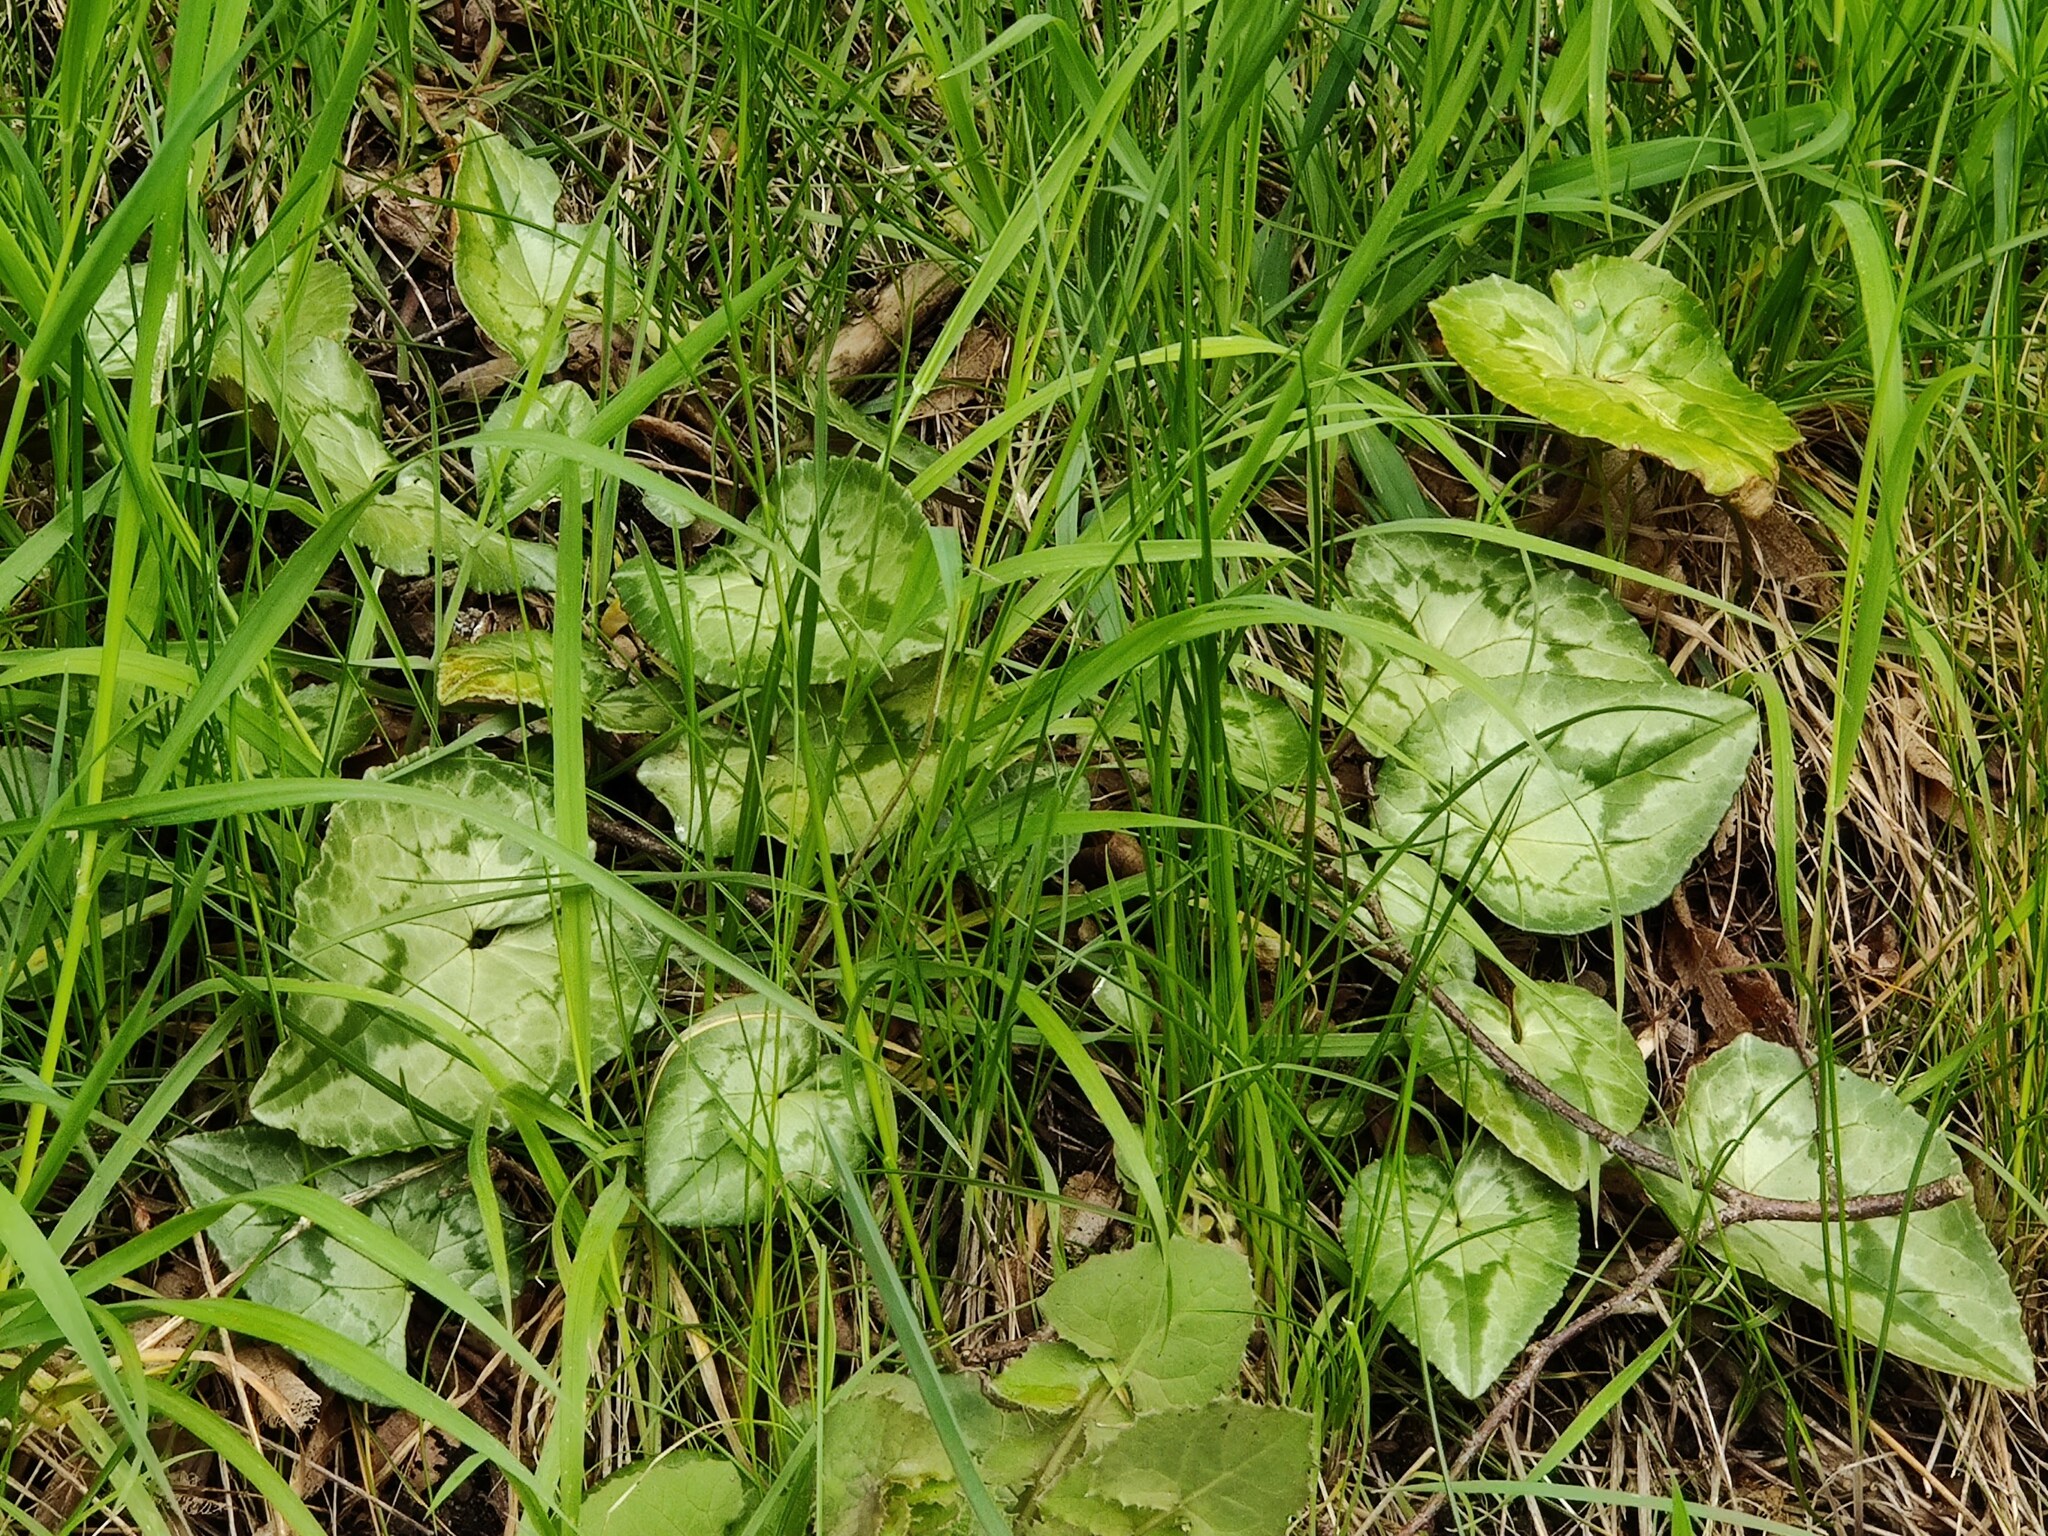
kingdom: Plantae
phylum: Tracheophyta
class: Magnoliopsida
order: Ericales
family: Primulaceae
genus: Cyclamen
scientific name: Cyclamen hederifolium
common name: Sowbread
